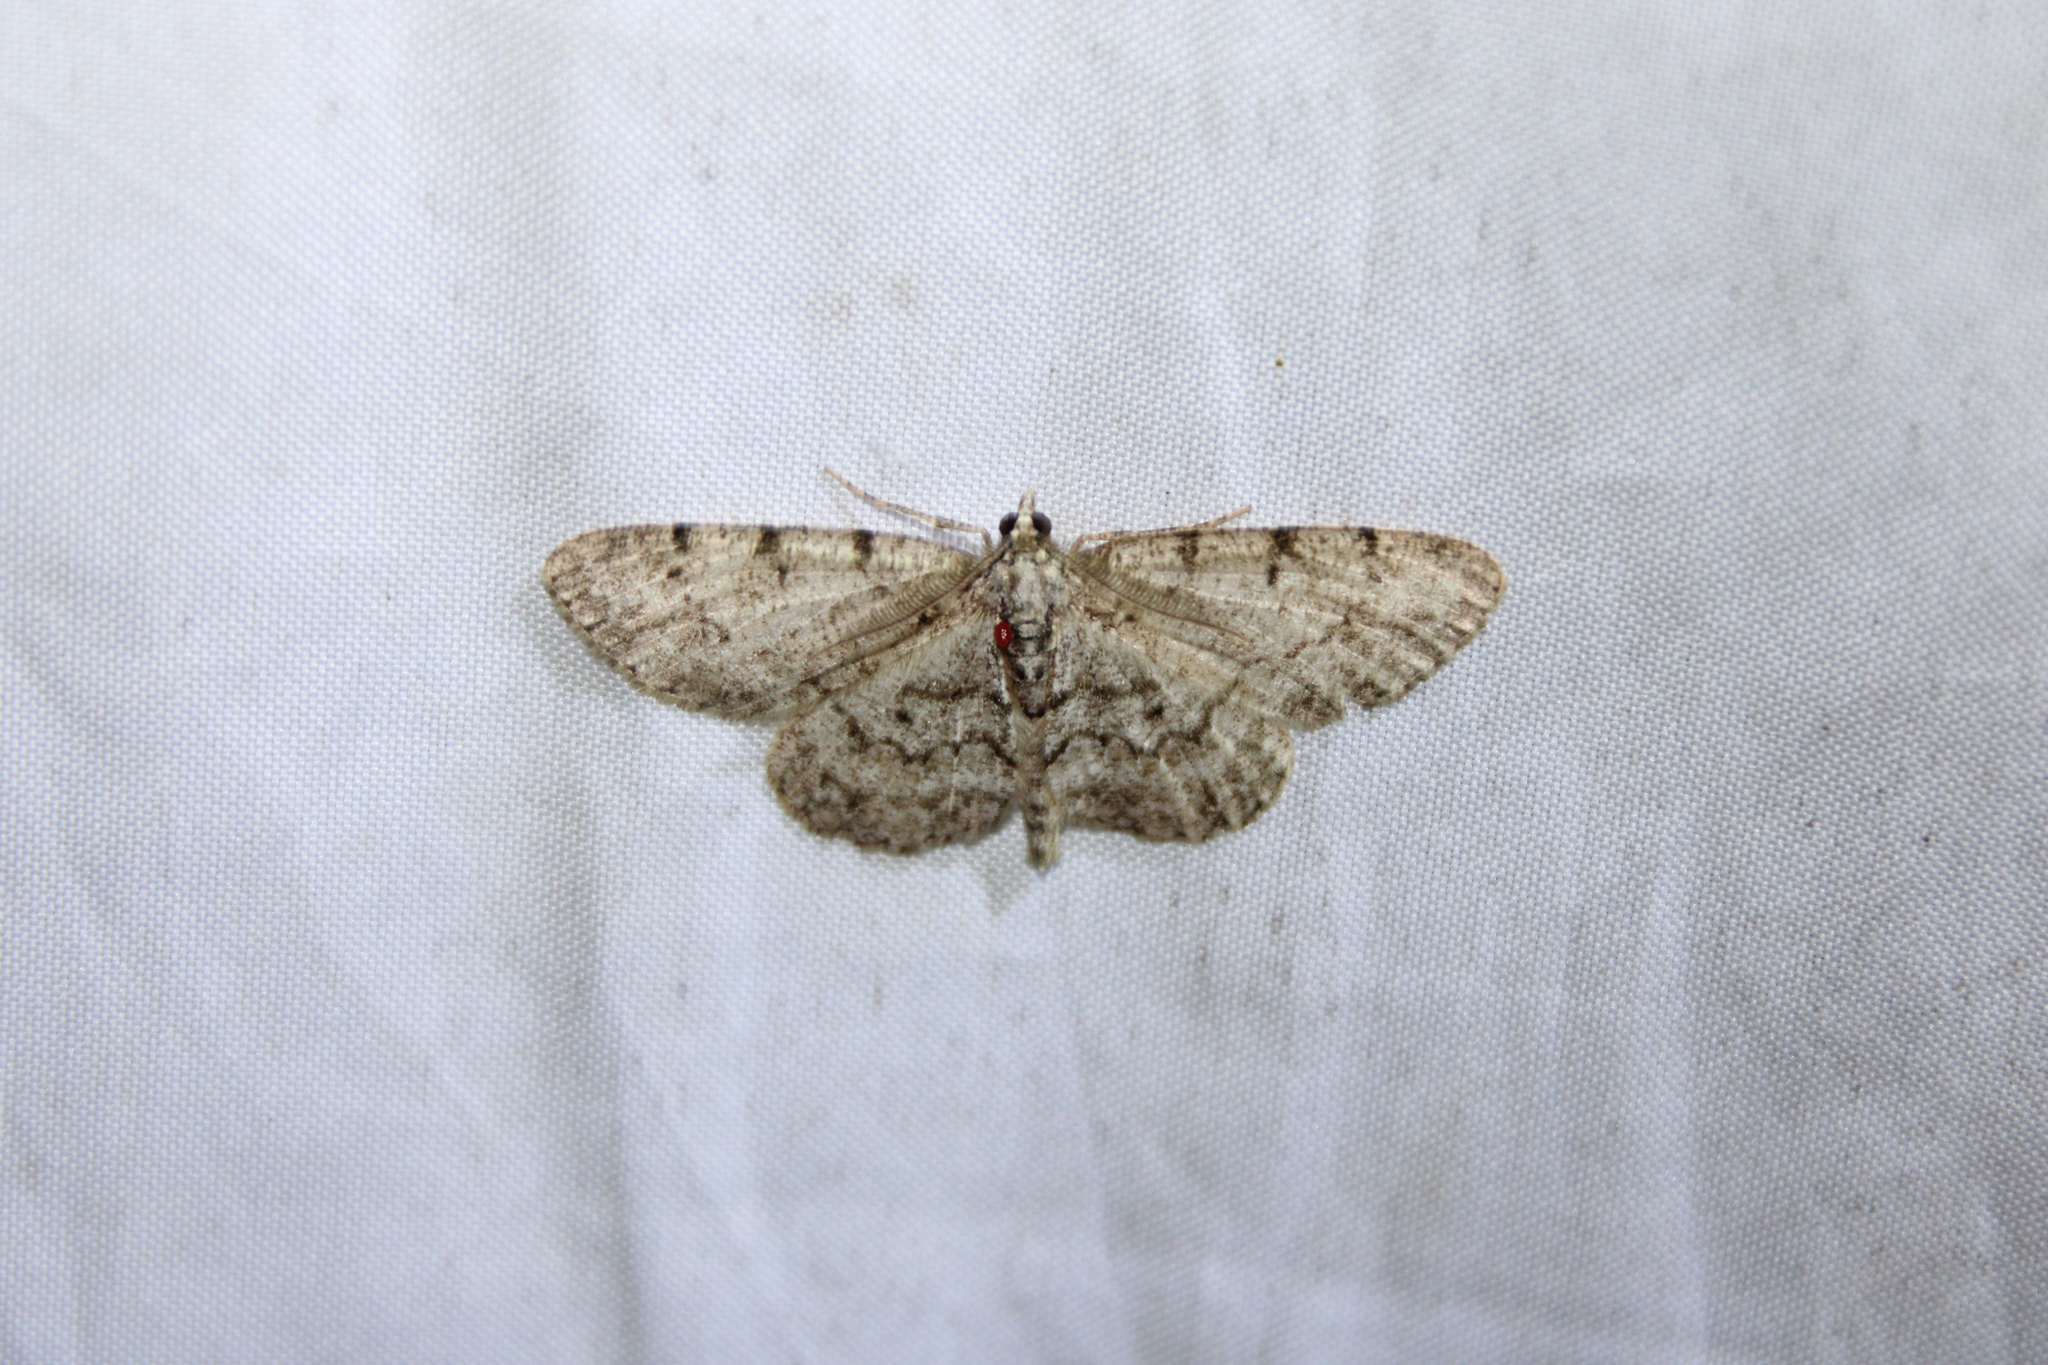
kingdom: Animalia
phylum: Arthropoda
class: Insecta
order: Lepidoptera
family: Geometridae
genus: Protoboarmia
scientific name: Protoboarmia porcelaria
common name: Porcelain gray
